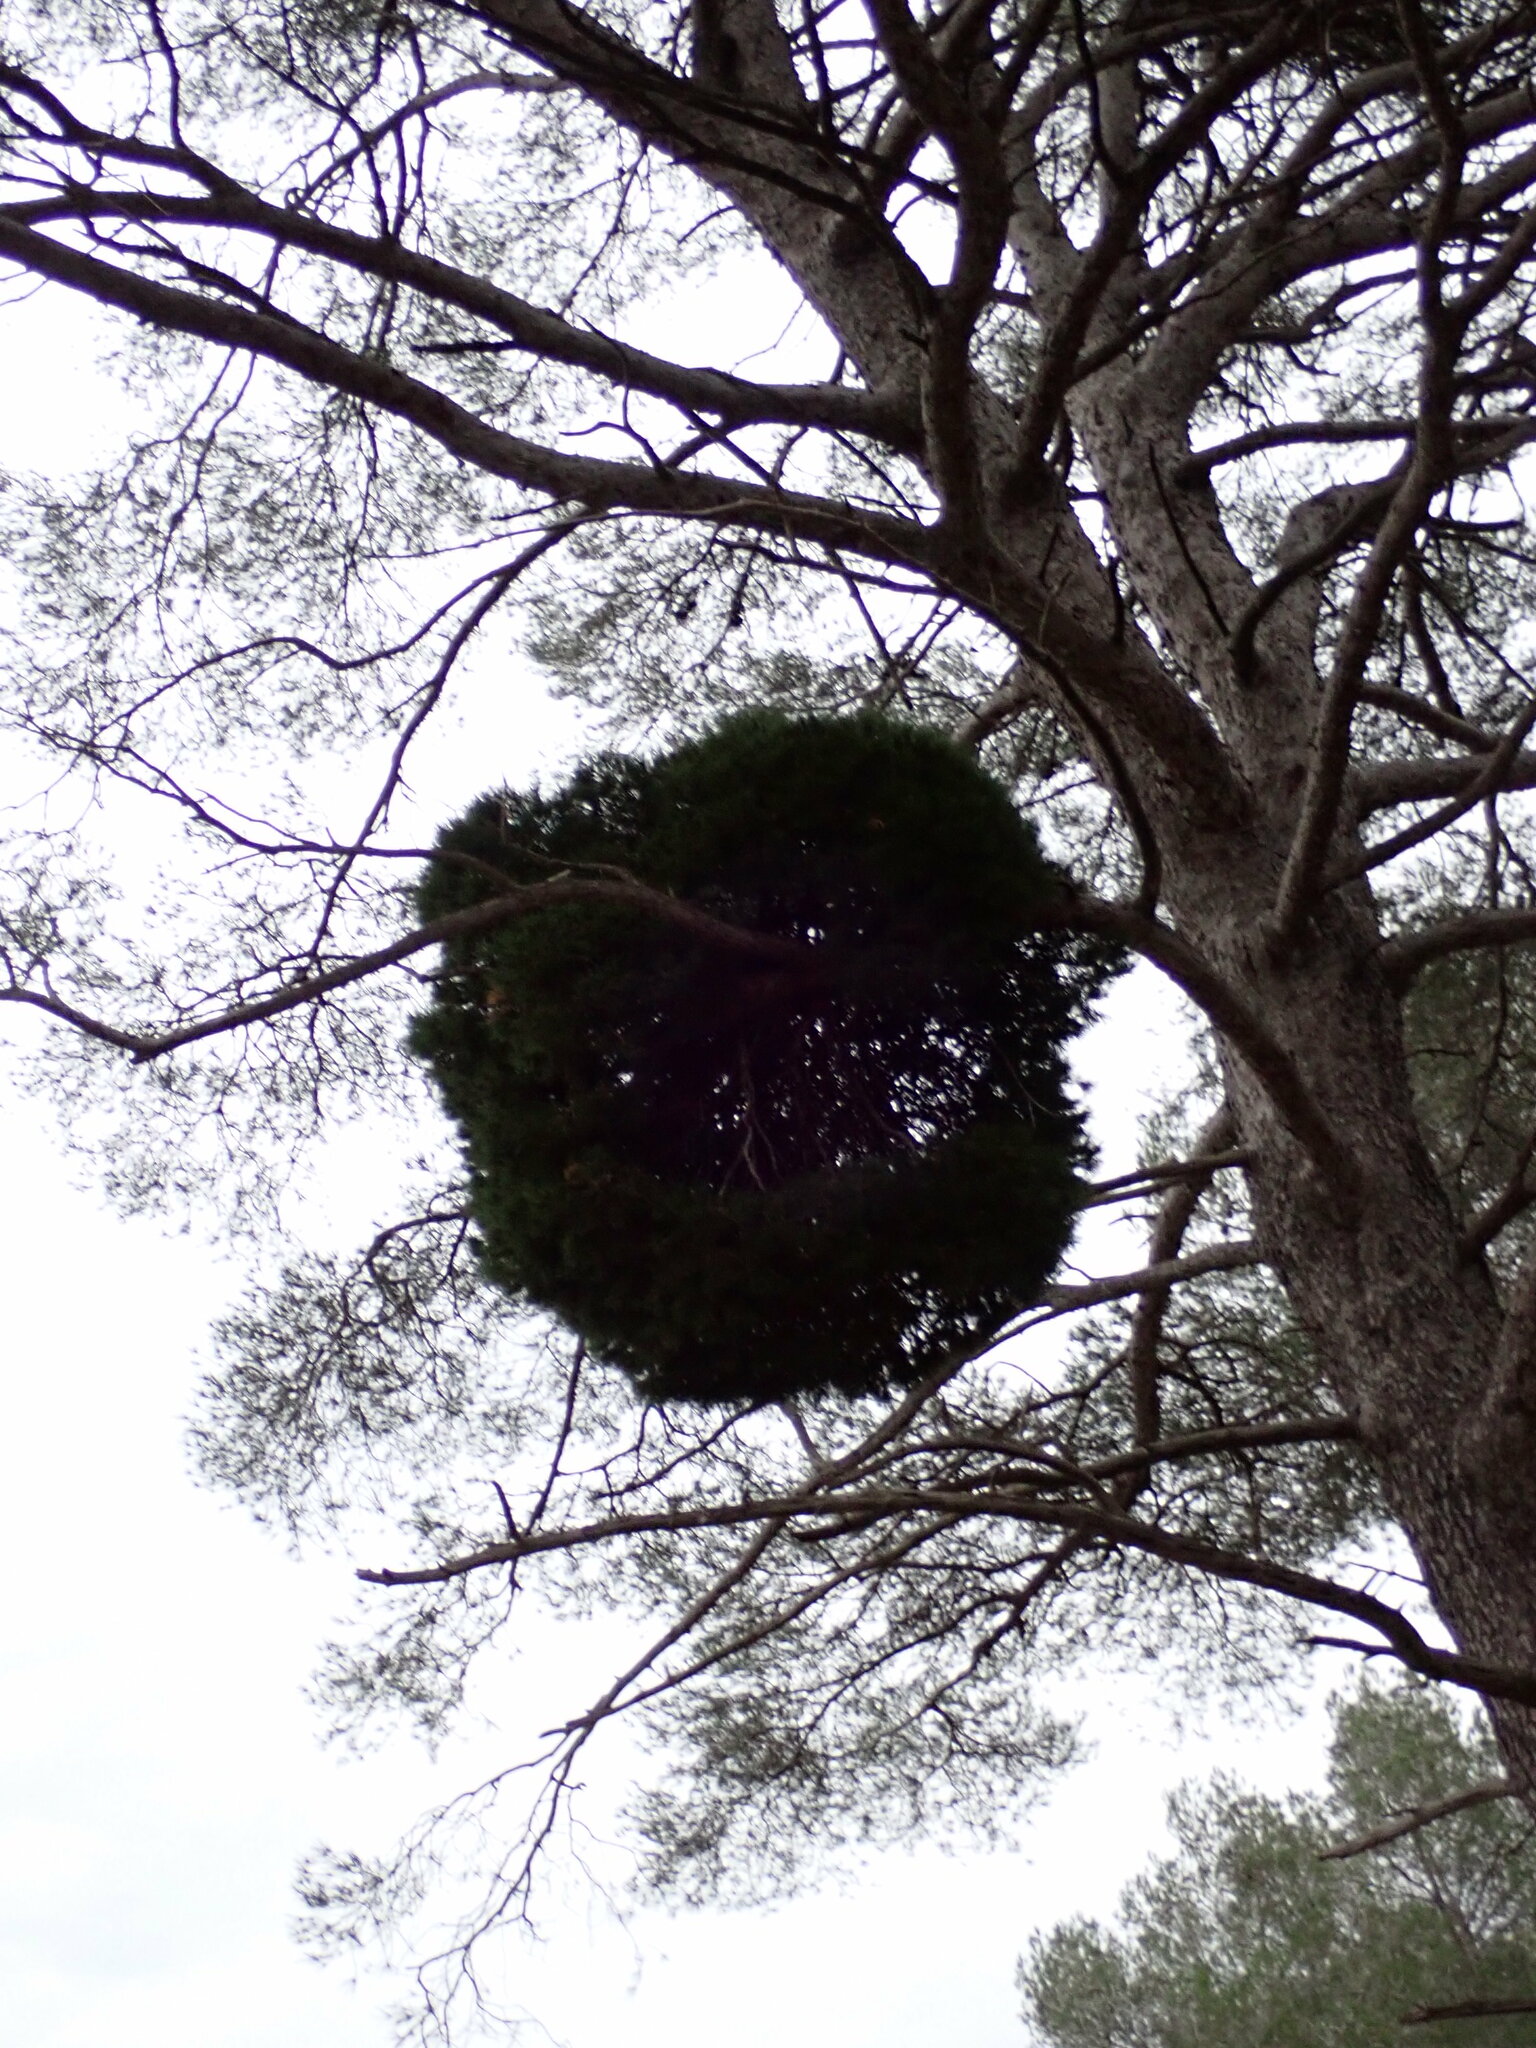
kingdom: Bacteria
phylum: Firmicutes
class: Bacilli
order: Acholeplasmatales
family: Acholeplasmataceae
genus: Phytoplasma
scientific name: Phytoplasma pini
